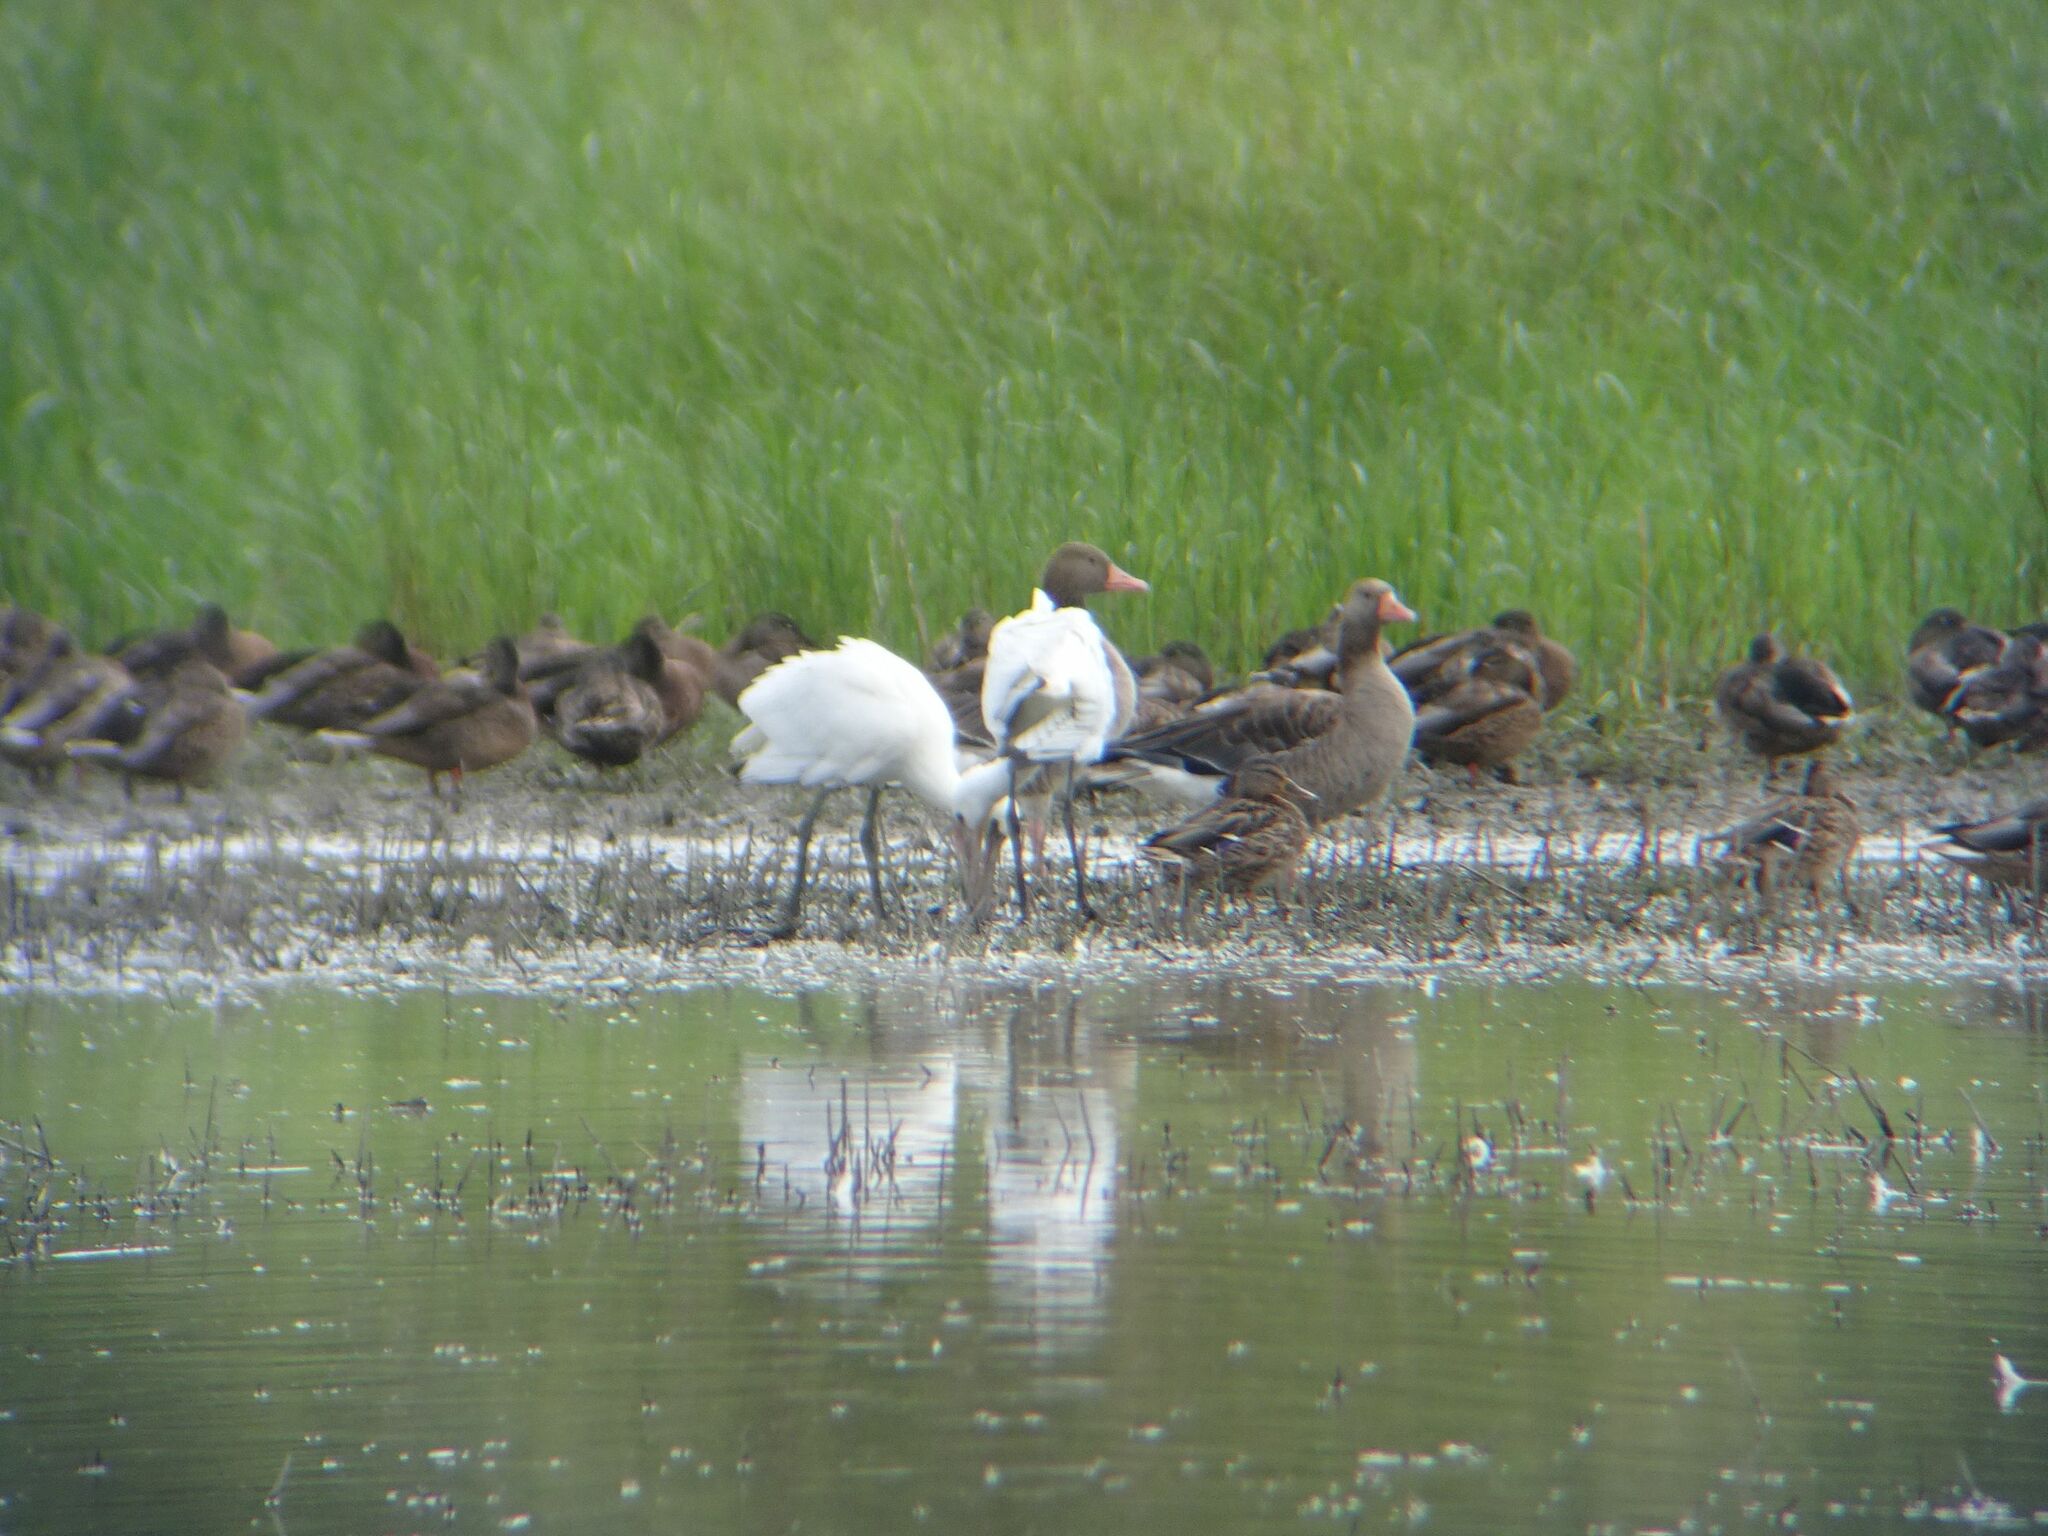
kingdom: Animalia
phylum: Chordata
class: Aves
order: Anseriformes
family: Anatidae
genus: Anser
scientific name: Anser anser
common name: Greylag goose
